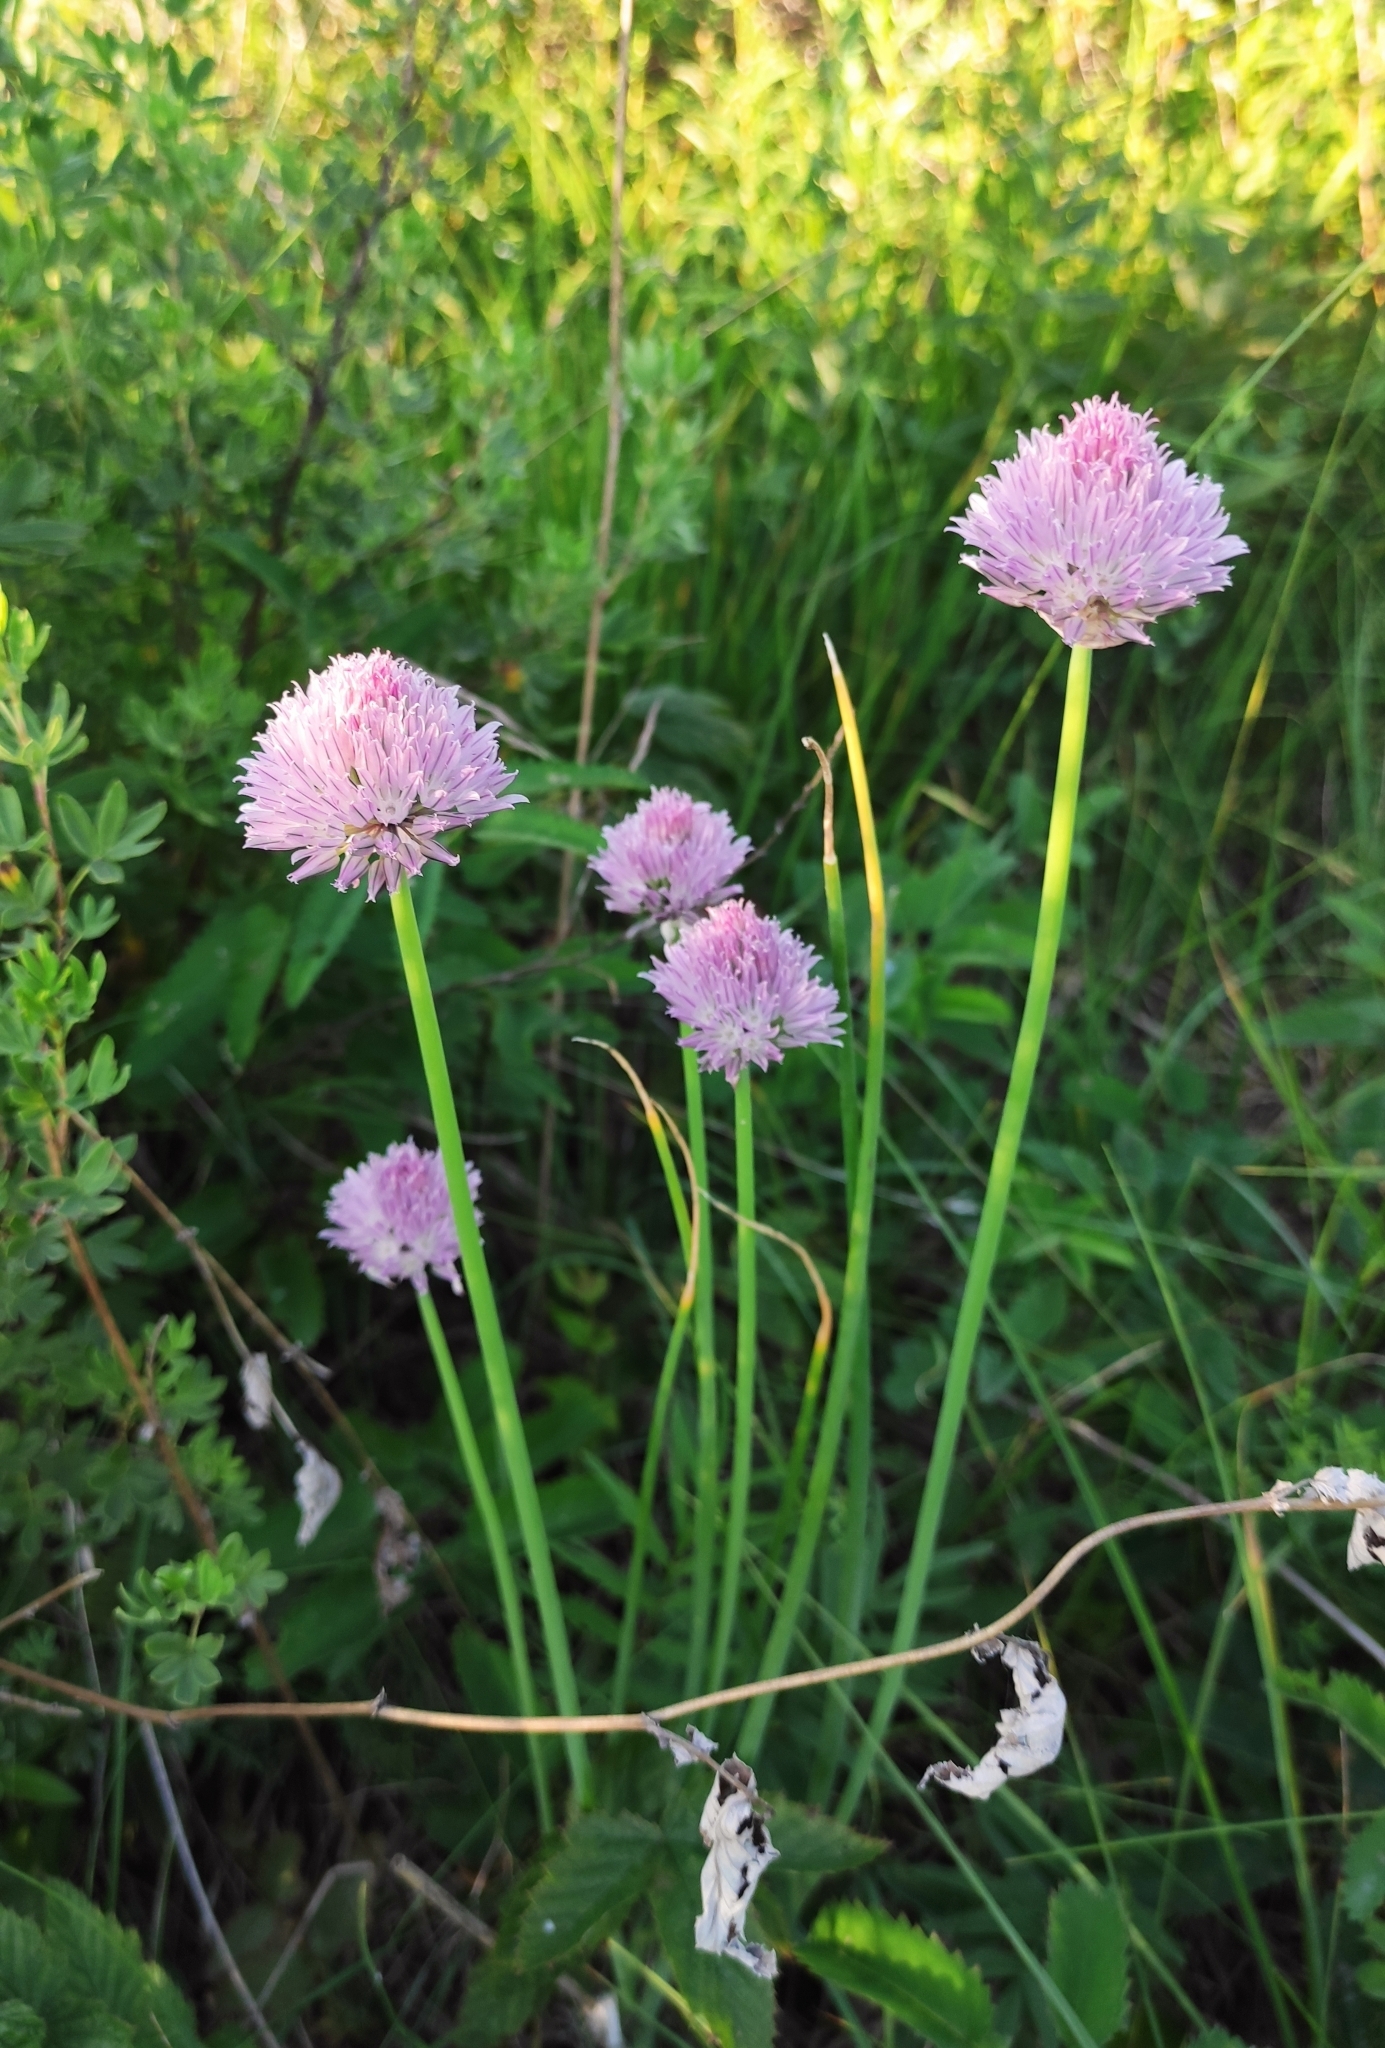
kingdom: Plantae
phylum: Tracheophyta
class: Liliopsida
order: Asparagales
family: Amaryllidaceae
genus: Allium
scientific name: Allium schoenoprasum
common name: Chives
